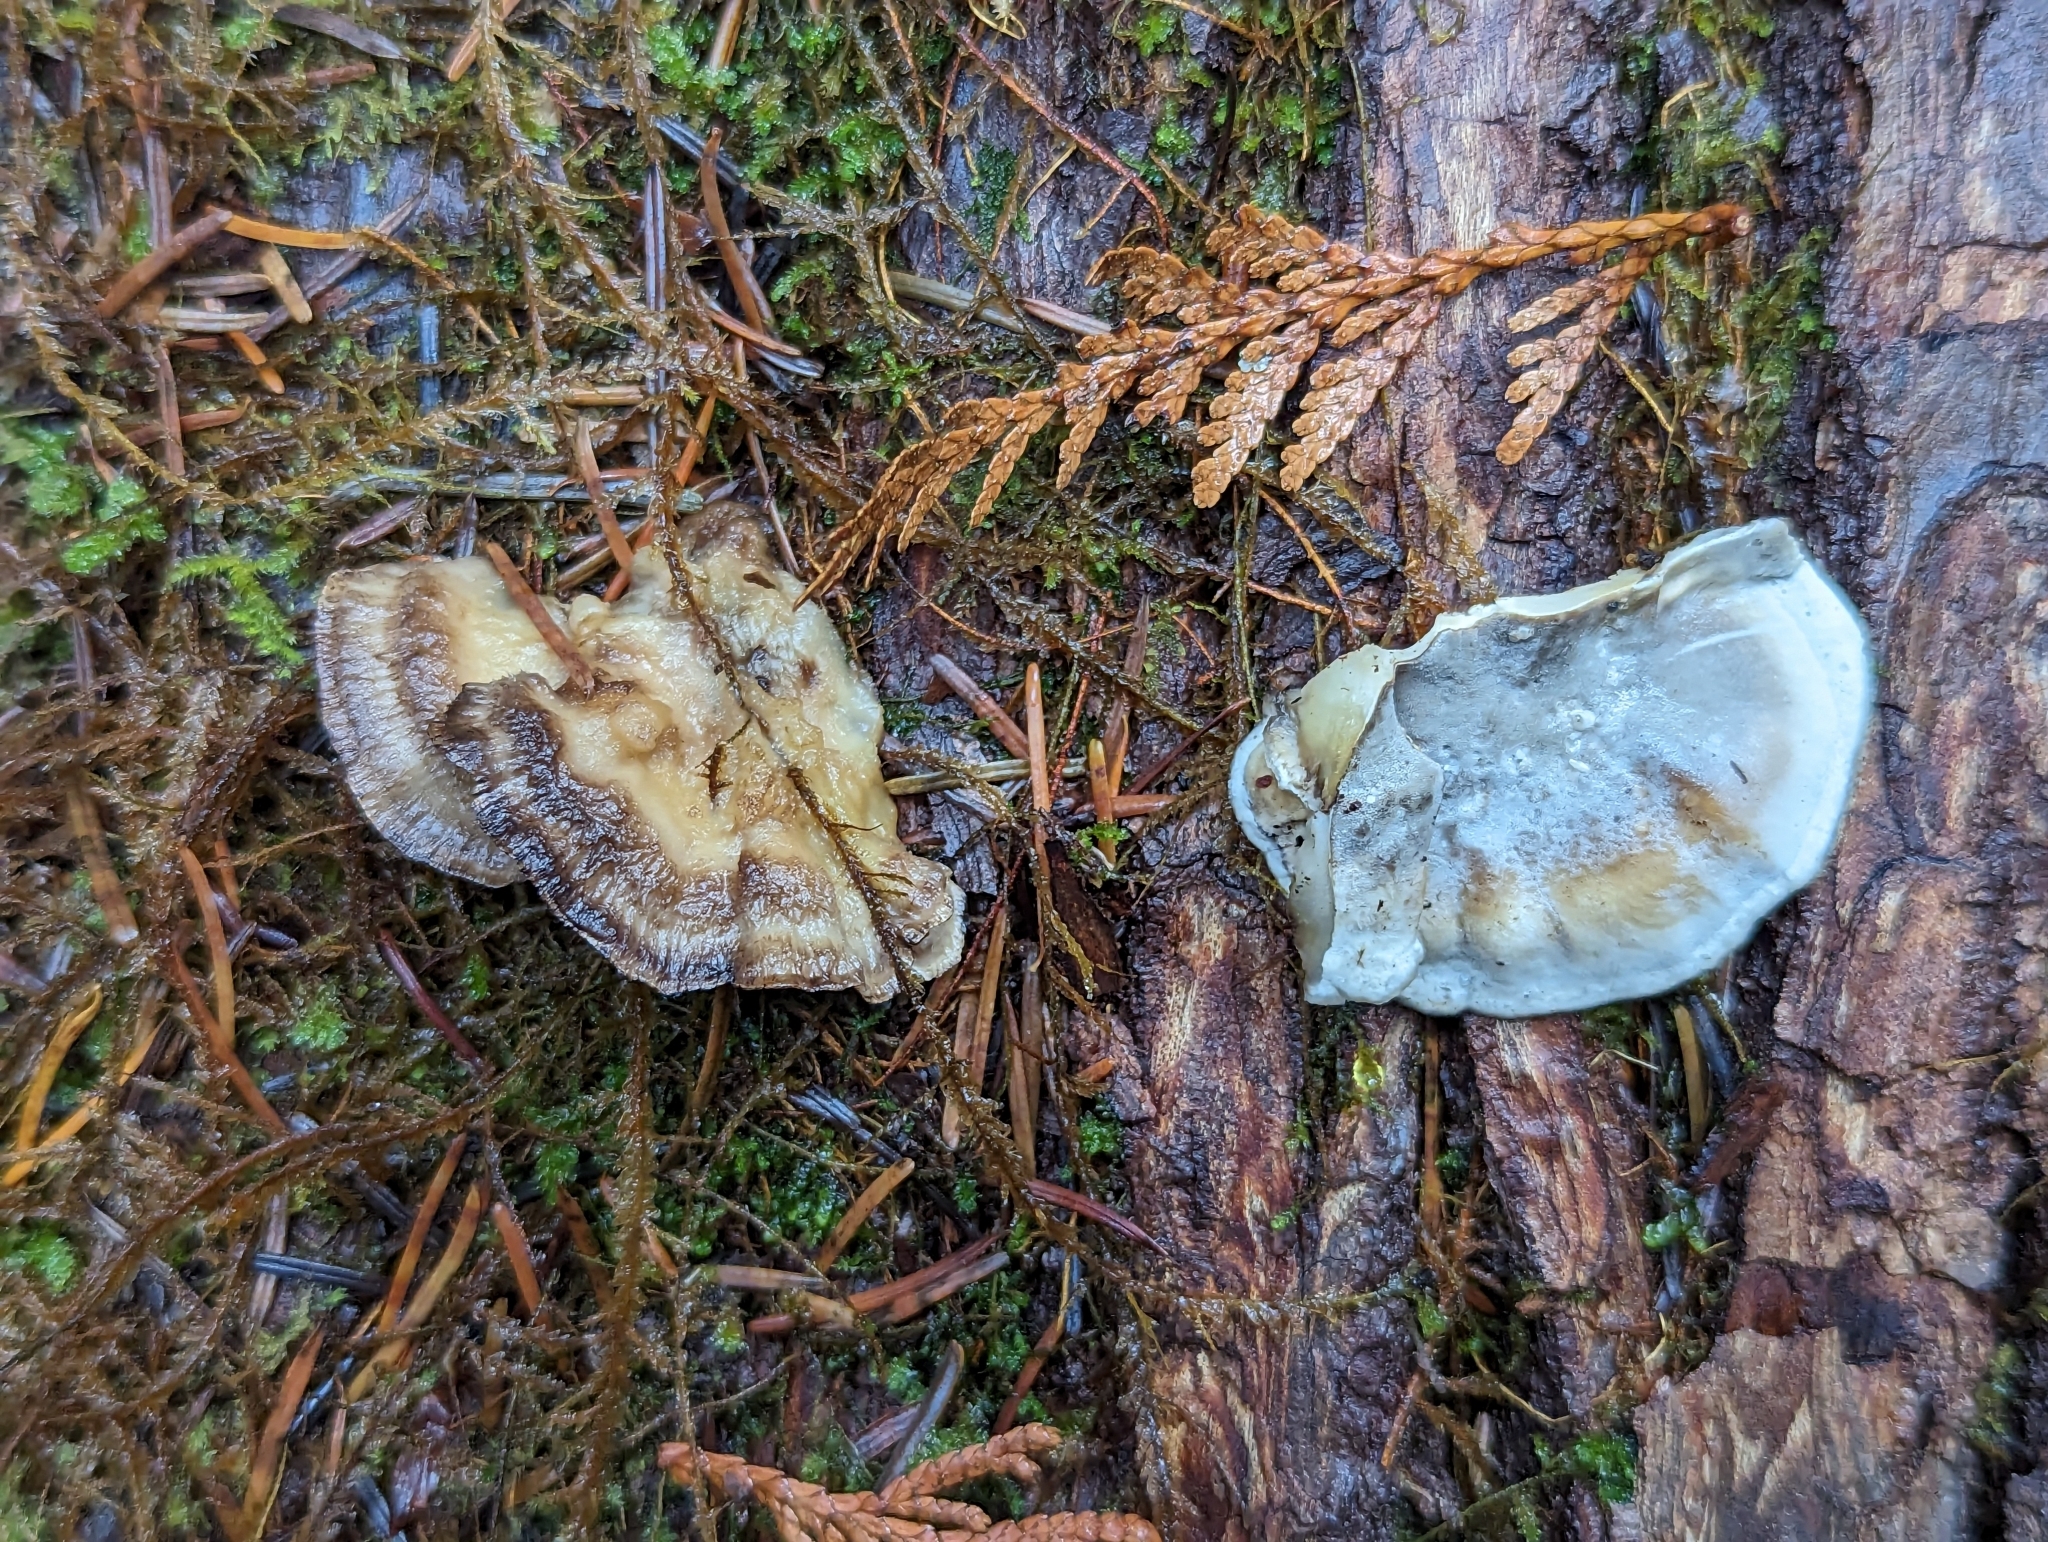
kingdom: Fungi
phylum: Basidiomycota
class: Agaricomycetes
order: Polyporales
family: Phanerochaetaceae
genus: Bjerkandera
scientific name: Bjerkandera adusta
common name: Smoky bracket
